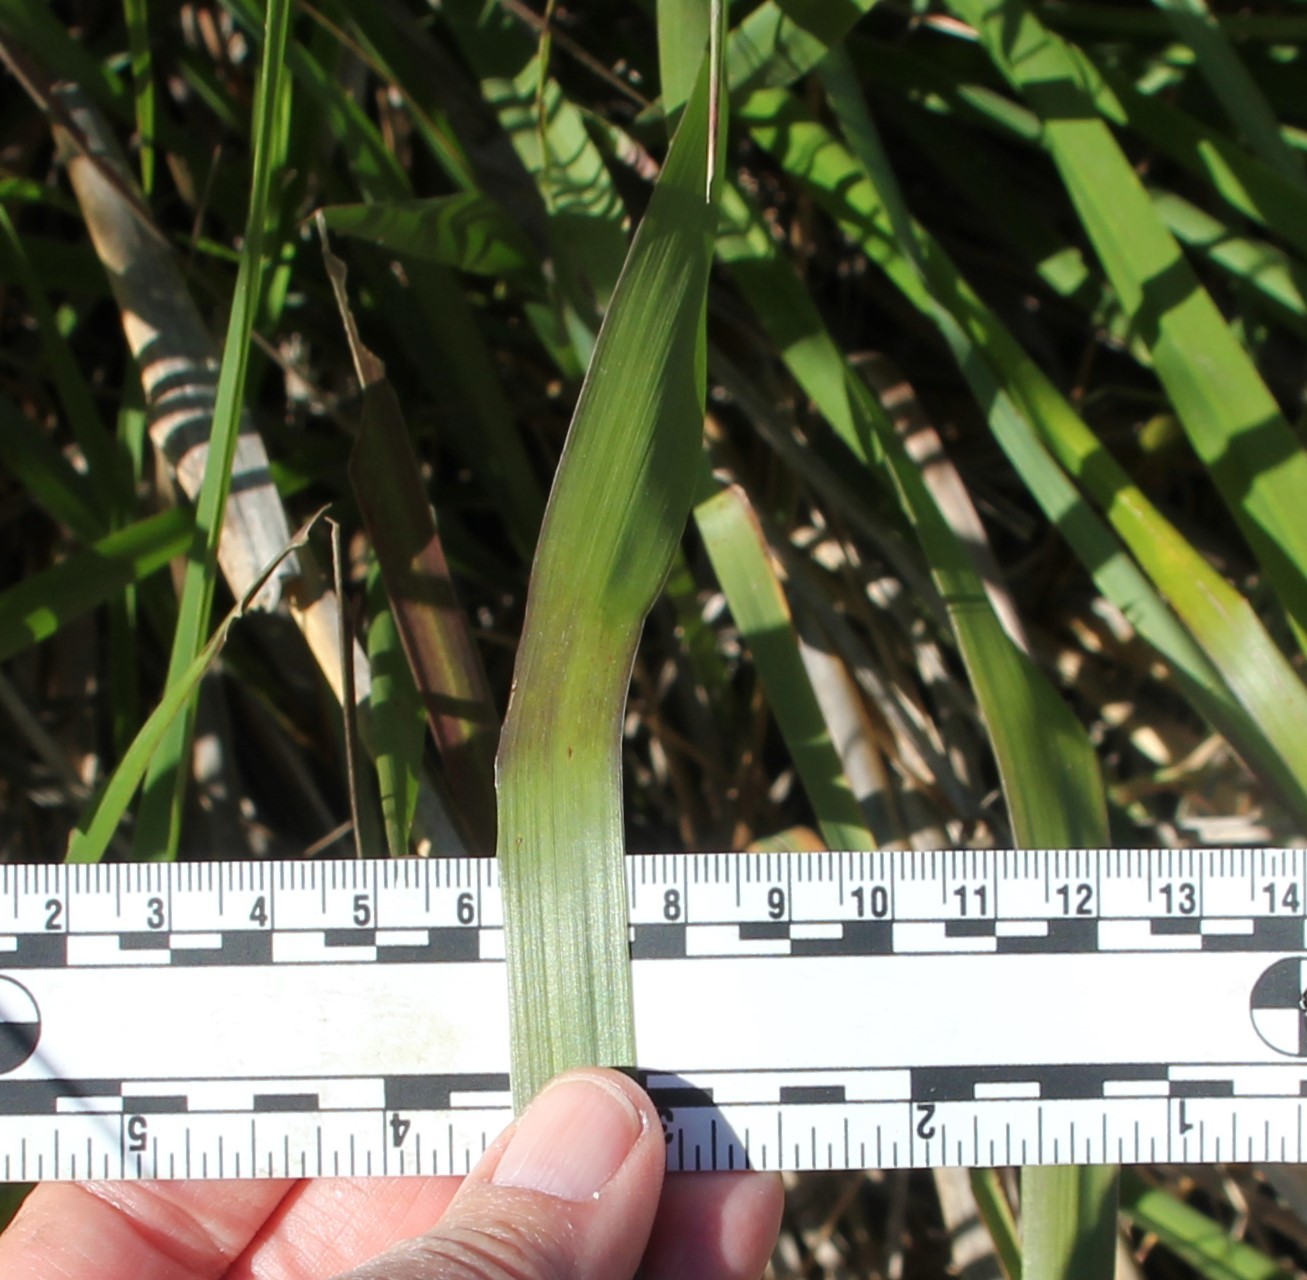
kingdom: Plantae
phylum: Tracheophyta
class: Liliopsida
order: Poales
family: Poaceae
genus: Leymus
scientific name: Leymus condensatus
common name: Giant wild rye
